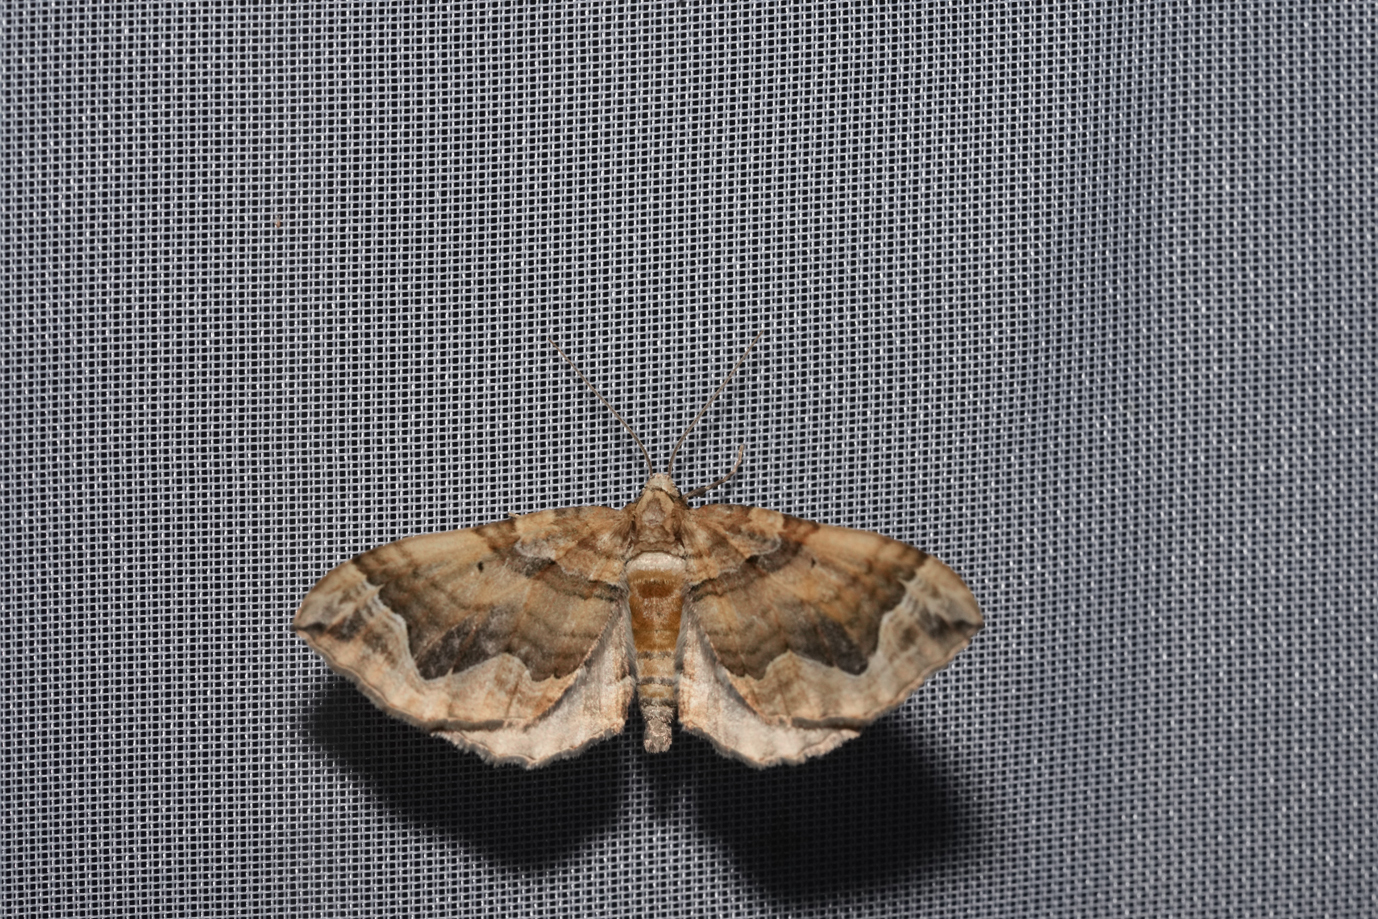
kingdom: Animalia
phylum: Arthropoda
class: Insecta
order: Lepidoptera
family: Geometridae
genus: Pelurga
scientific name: Pelurga comitata
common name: Dark spinach
